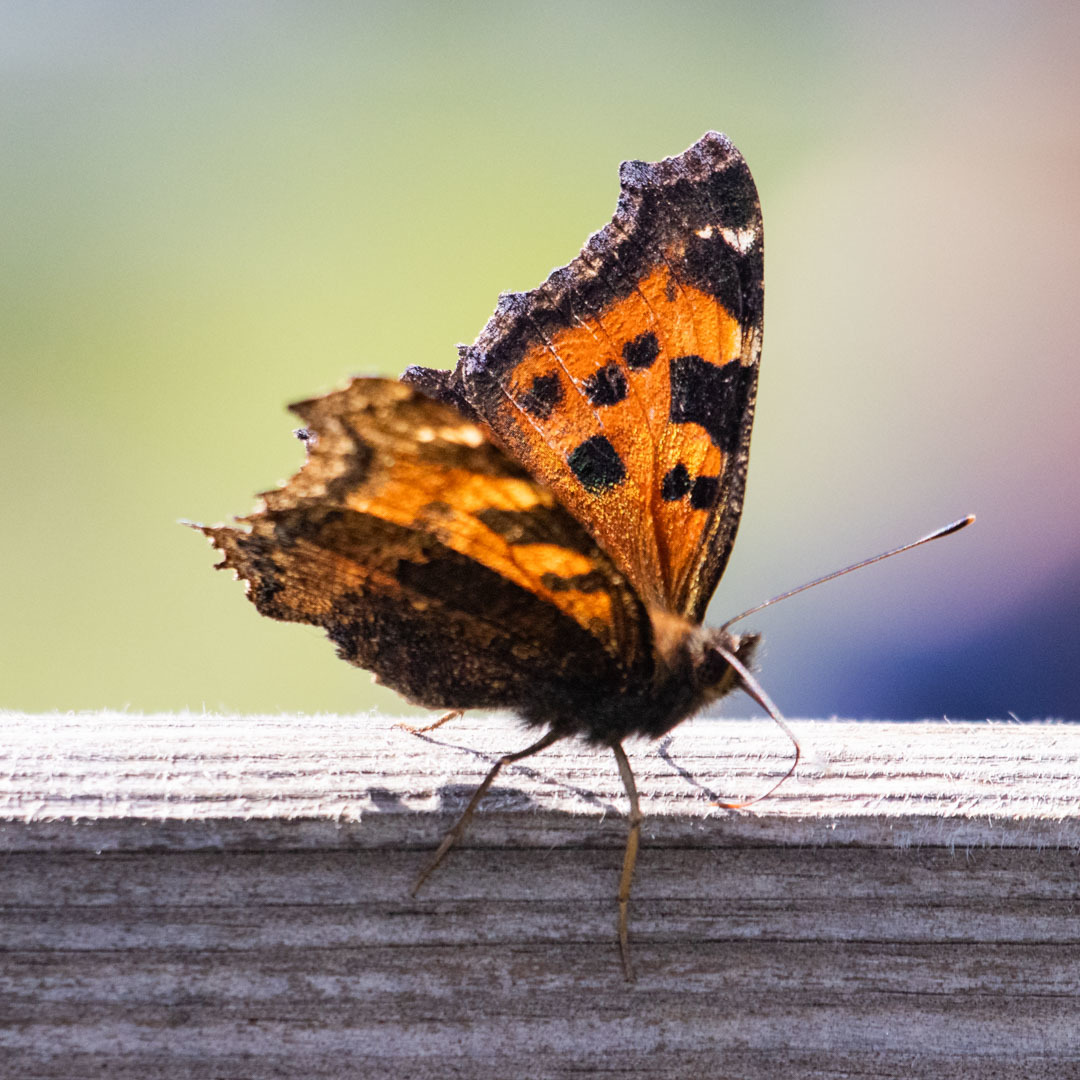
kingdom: Animalia
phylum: Arthropoda
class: Insecta
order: Lepidoptera
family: Nymphalidae
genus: Nymphalis
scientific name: Nymphalis xanthomelas
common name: Scarce tortoiseshell
